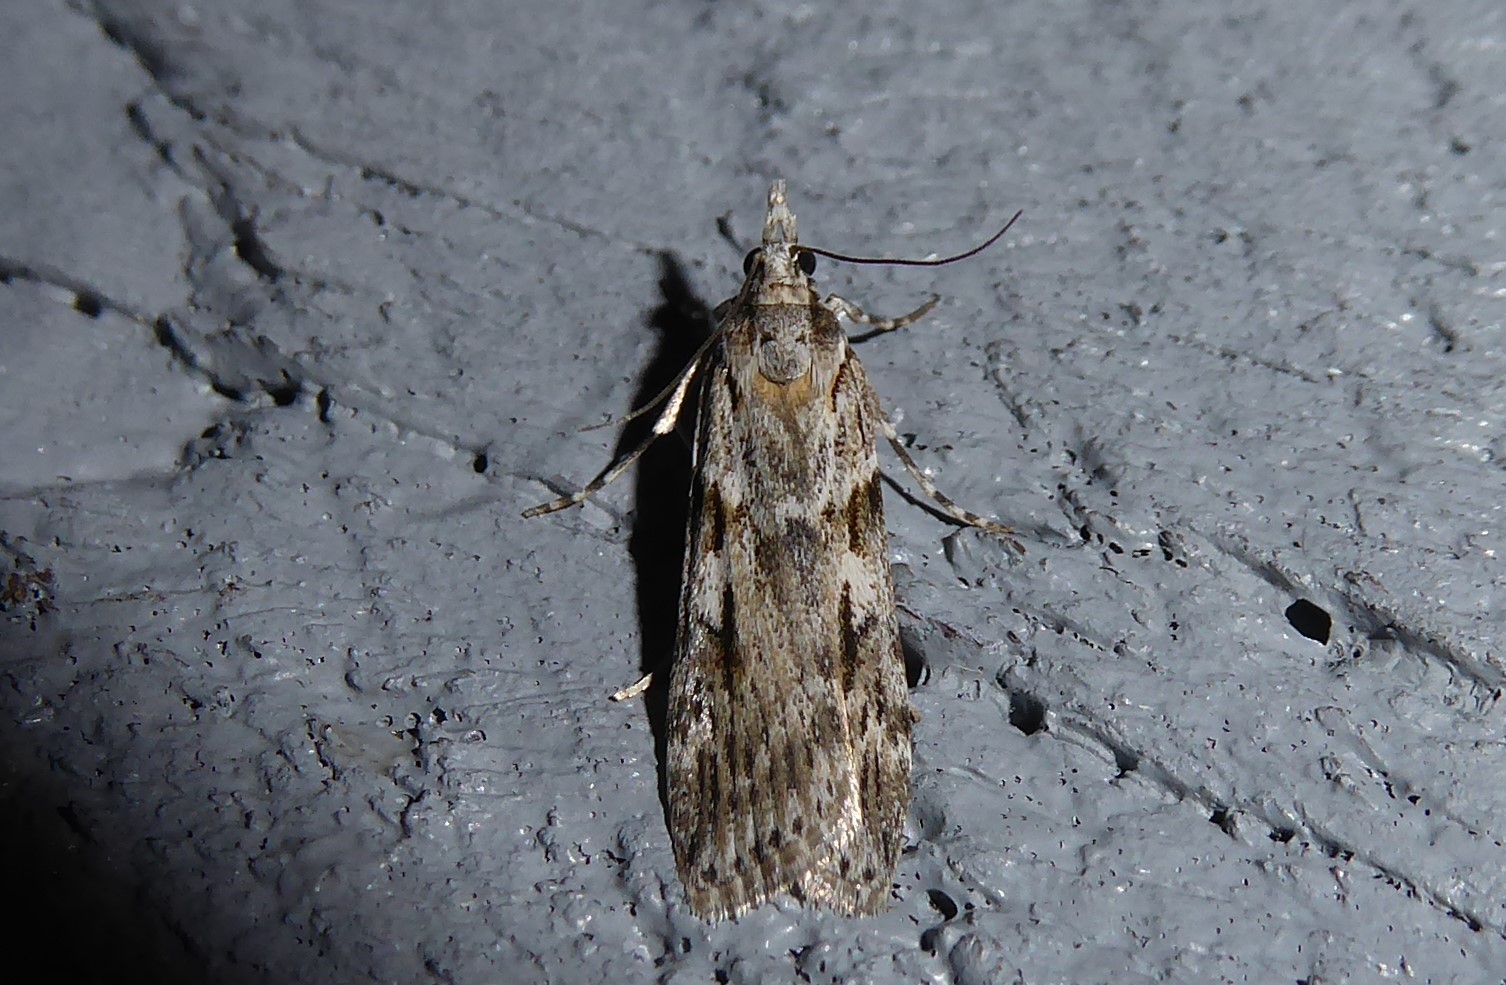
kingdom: Animalia
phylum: Arthropoda
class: Insecta
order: Lepidoptera
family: Crambidae
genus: Scoparia
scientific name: Scoparia halopis
